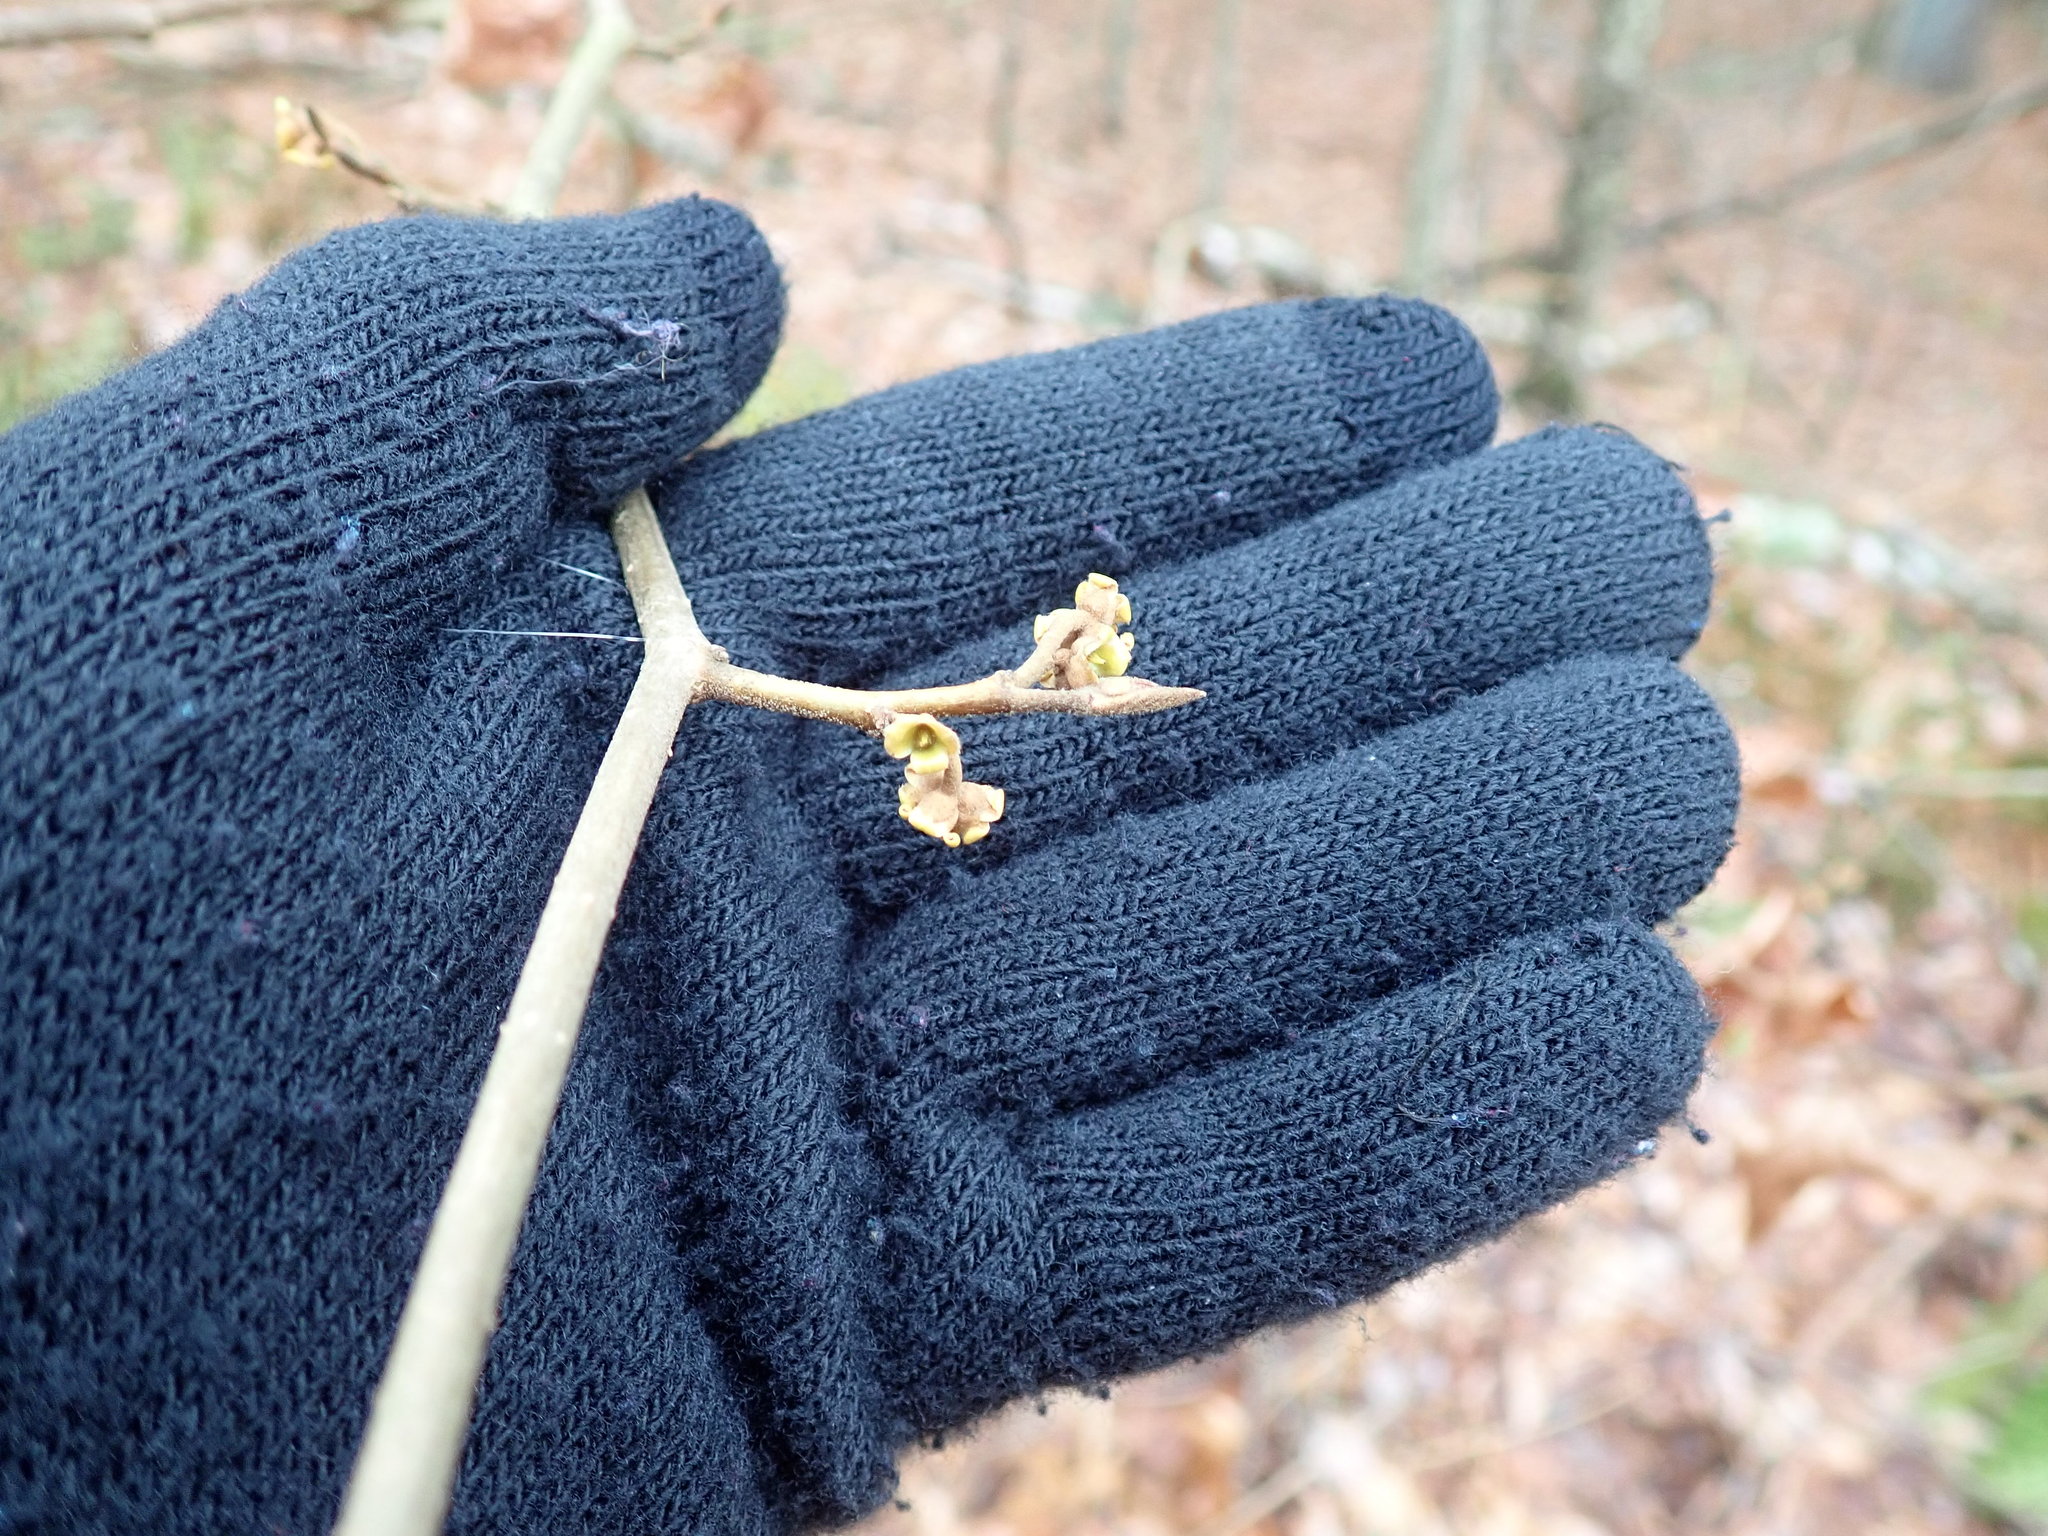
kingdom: Plantae
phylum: Tracheophyta
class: Magnoliopsida
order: Saxifragales
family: Hamamelidaceae
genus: Hamamelis
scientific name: Hamamelis virginiana
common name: Witch-hazel
